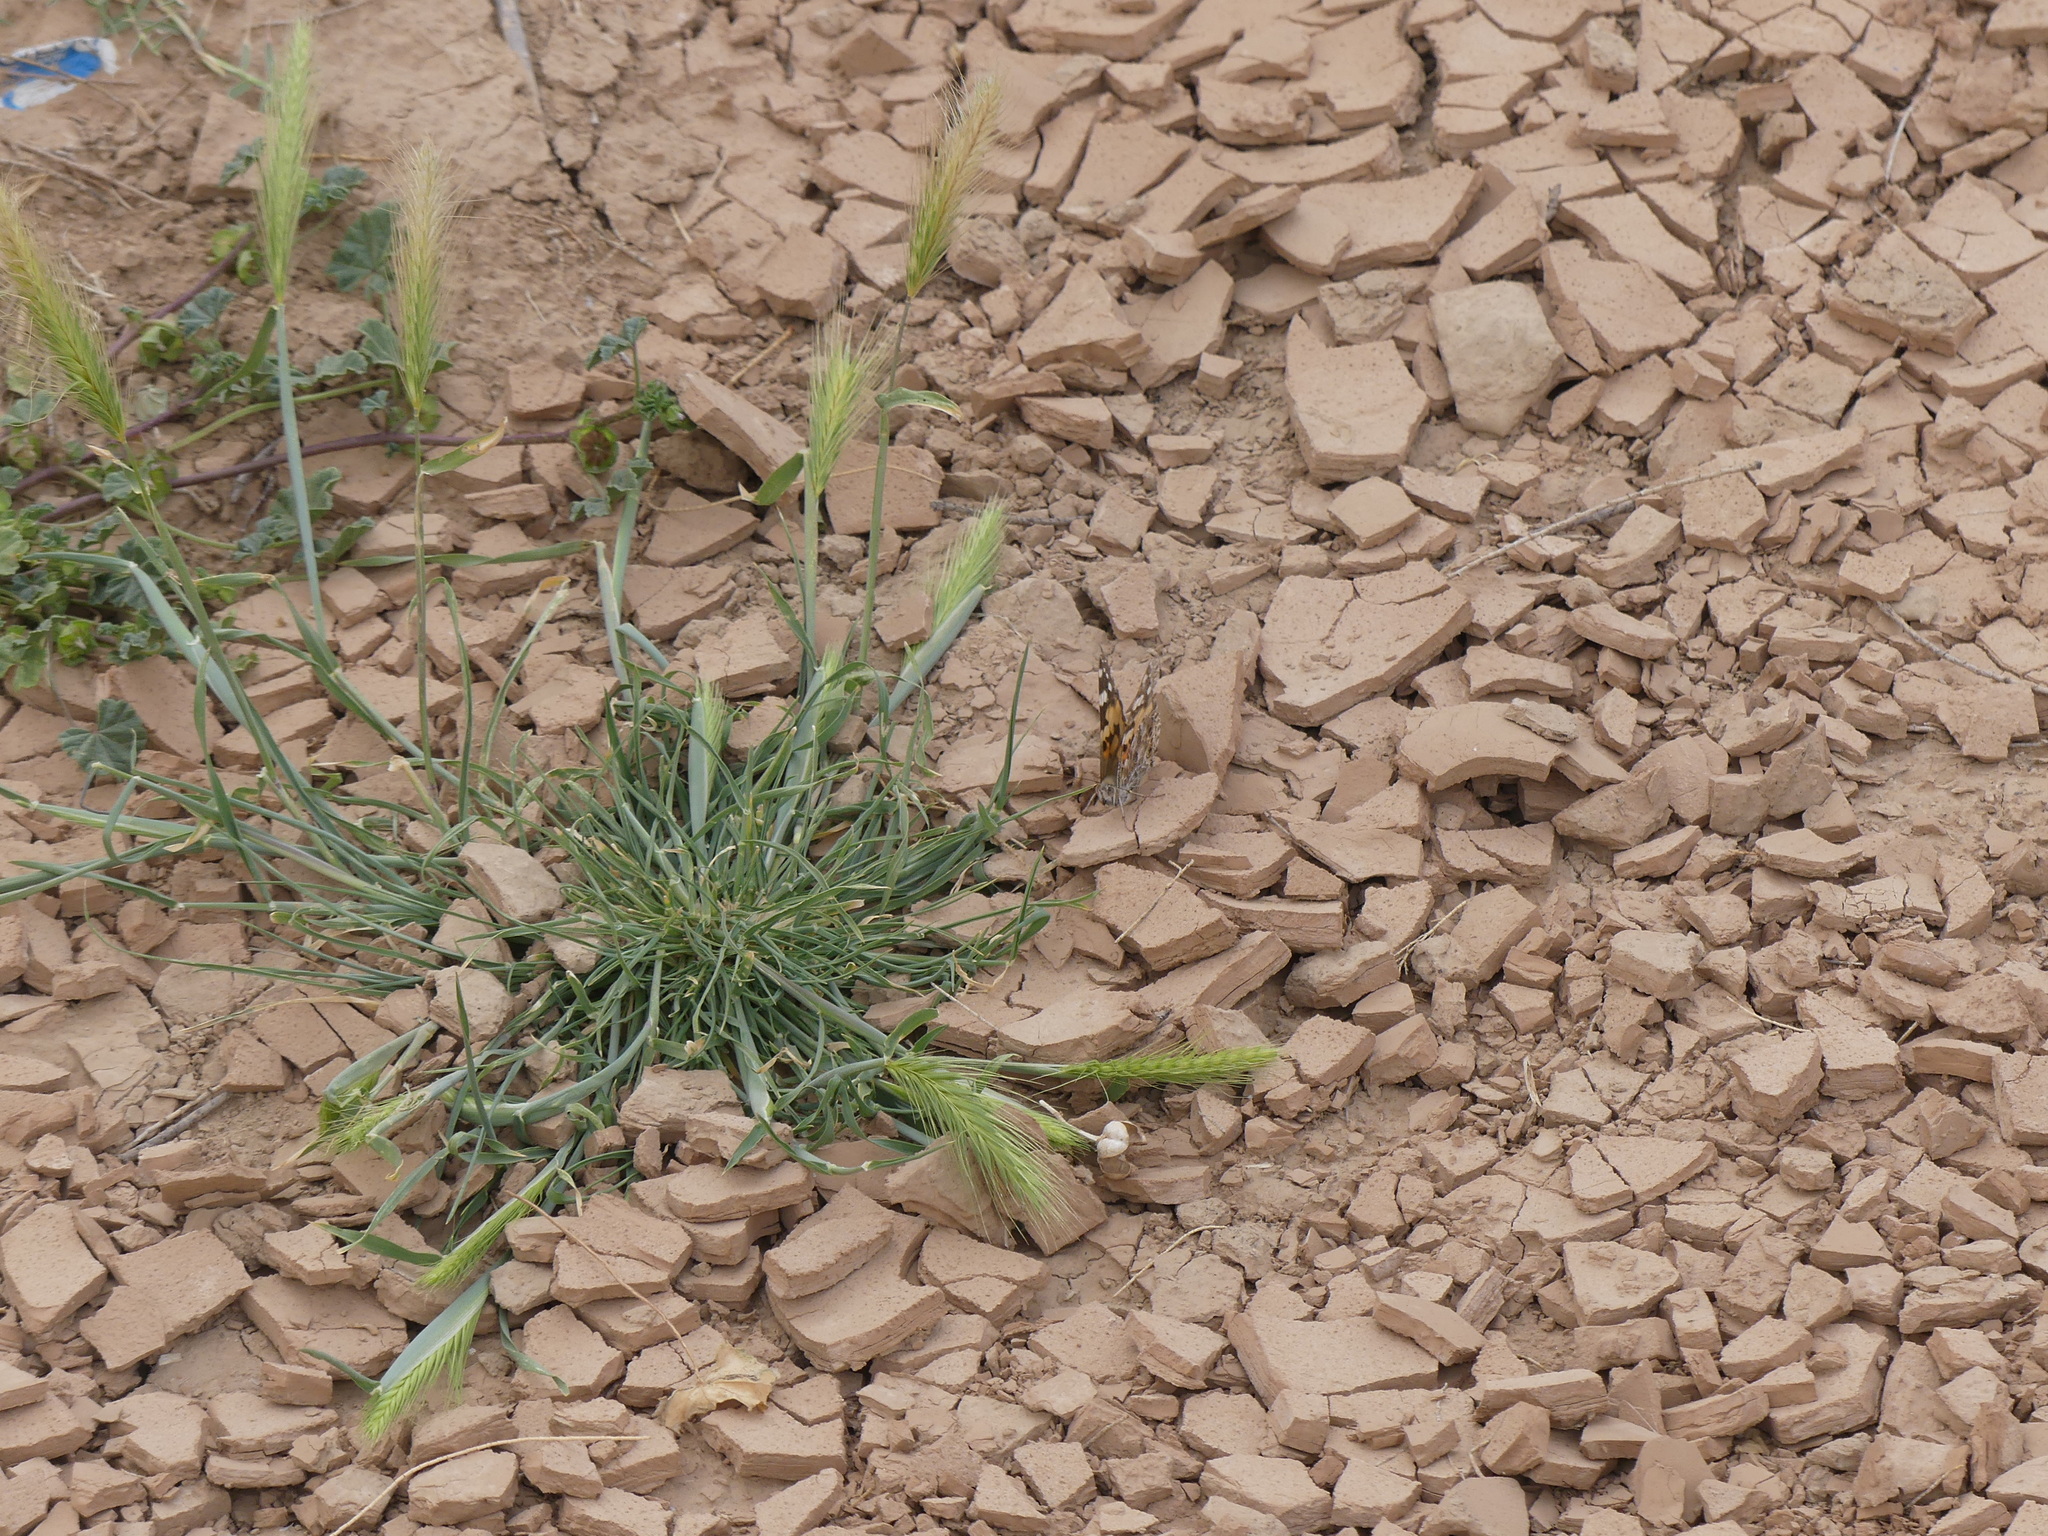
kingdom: Animalia
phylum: Arthropoda
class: Insecta
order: Lepidoptera
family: Nymphalidae
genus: Vanessa
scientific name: Vanessa cardui
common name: Painted lady
